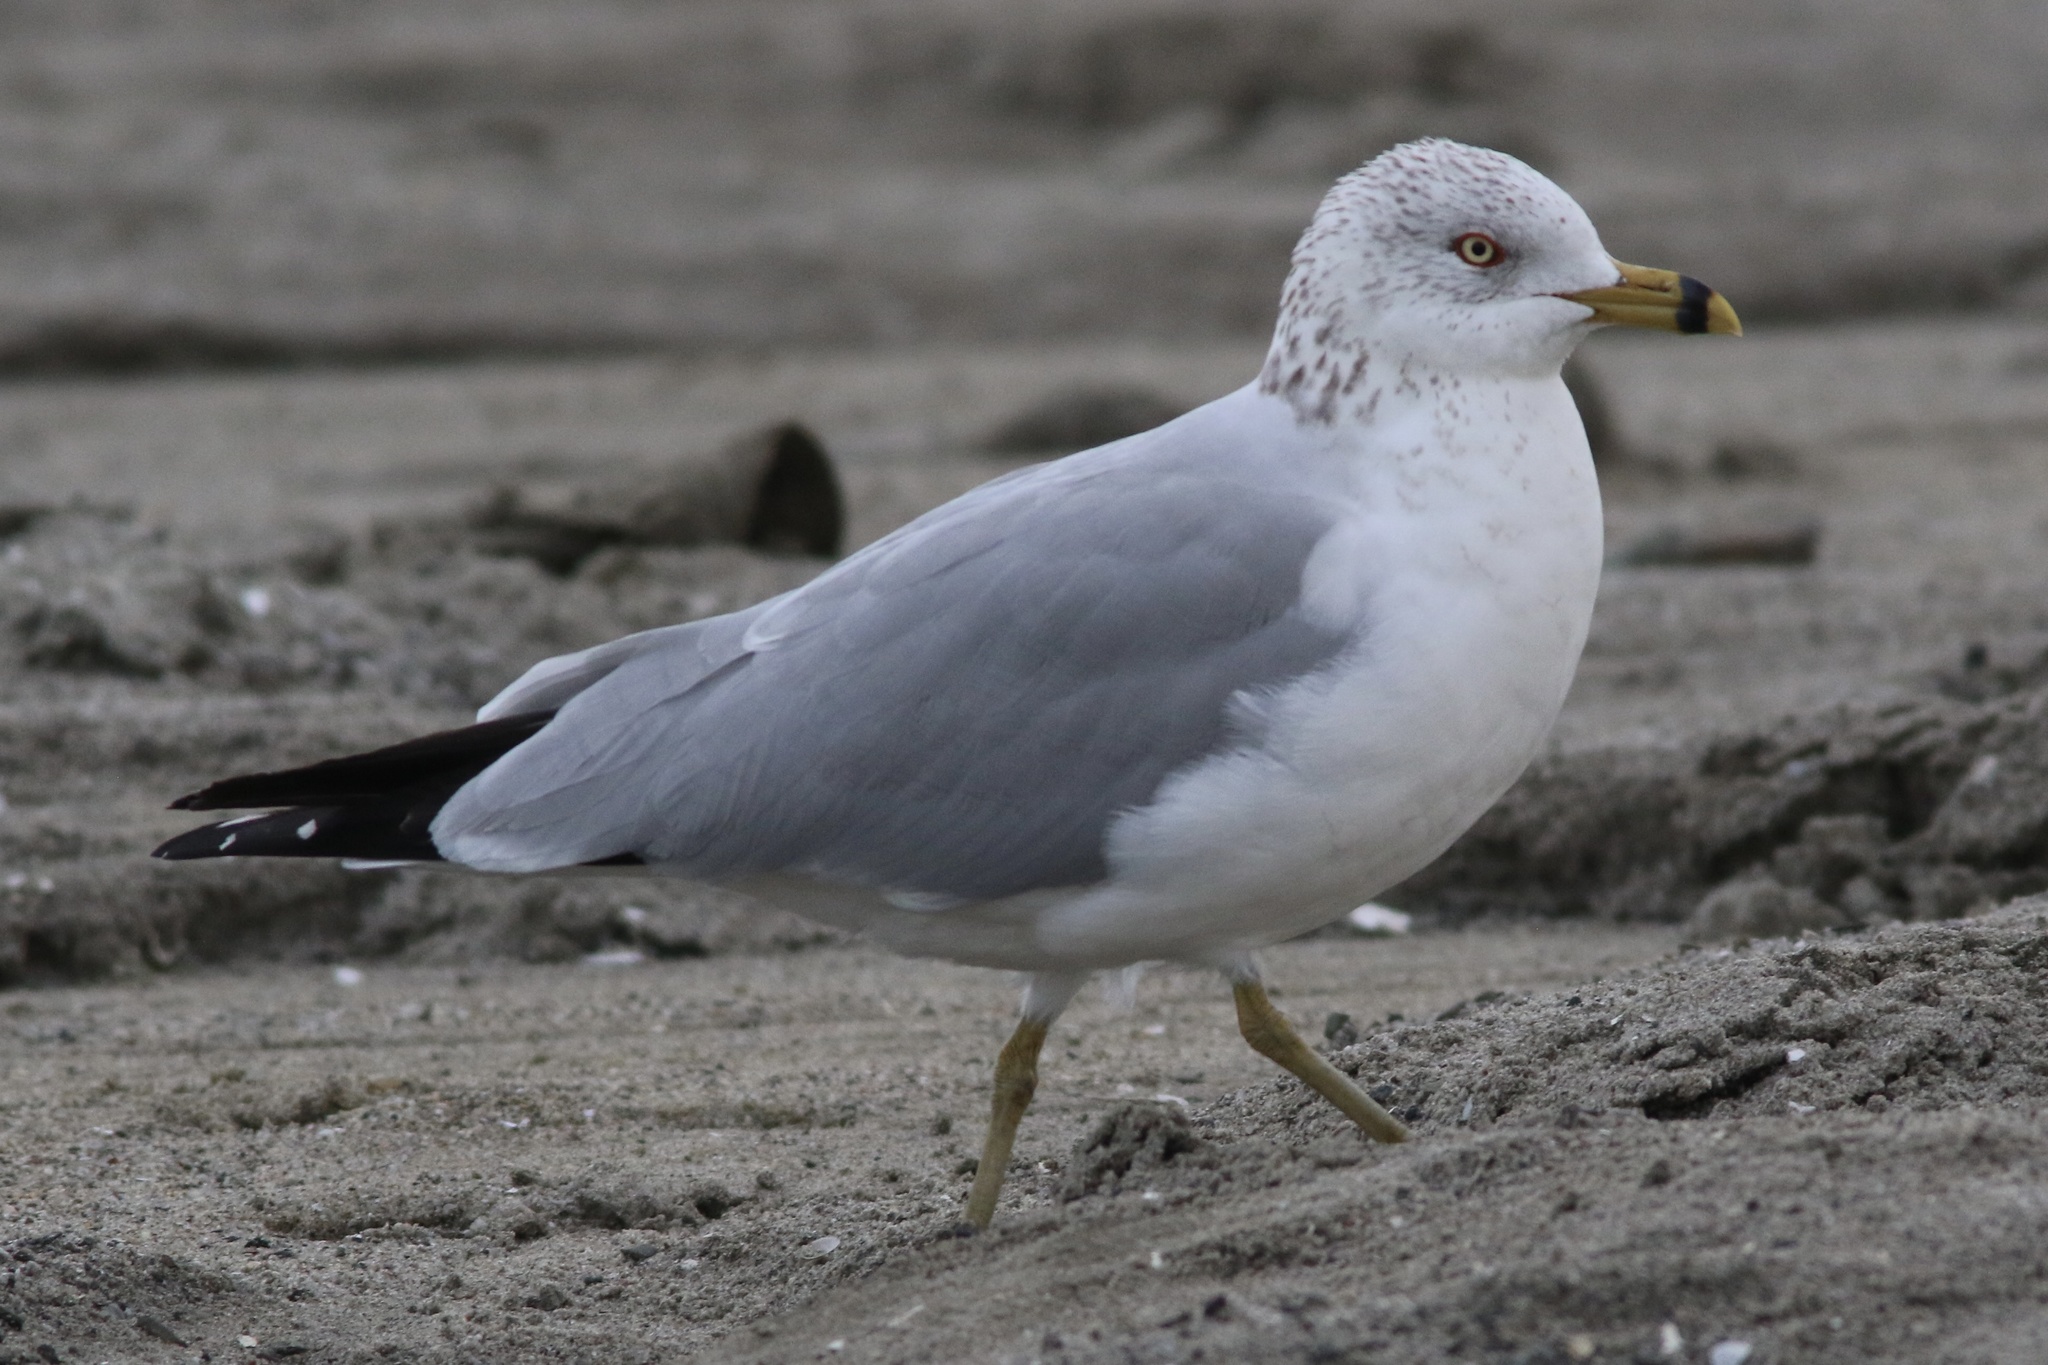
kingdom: Animalia
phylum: Chordata
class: Aves
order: Charadriiformes
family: Laridae
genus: Larus
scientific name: Larus delawarensis
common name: Ring-billed gull
